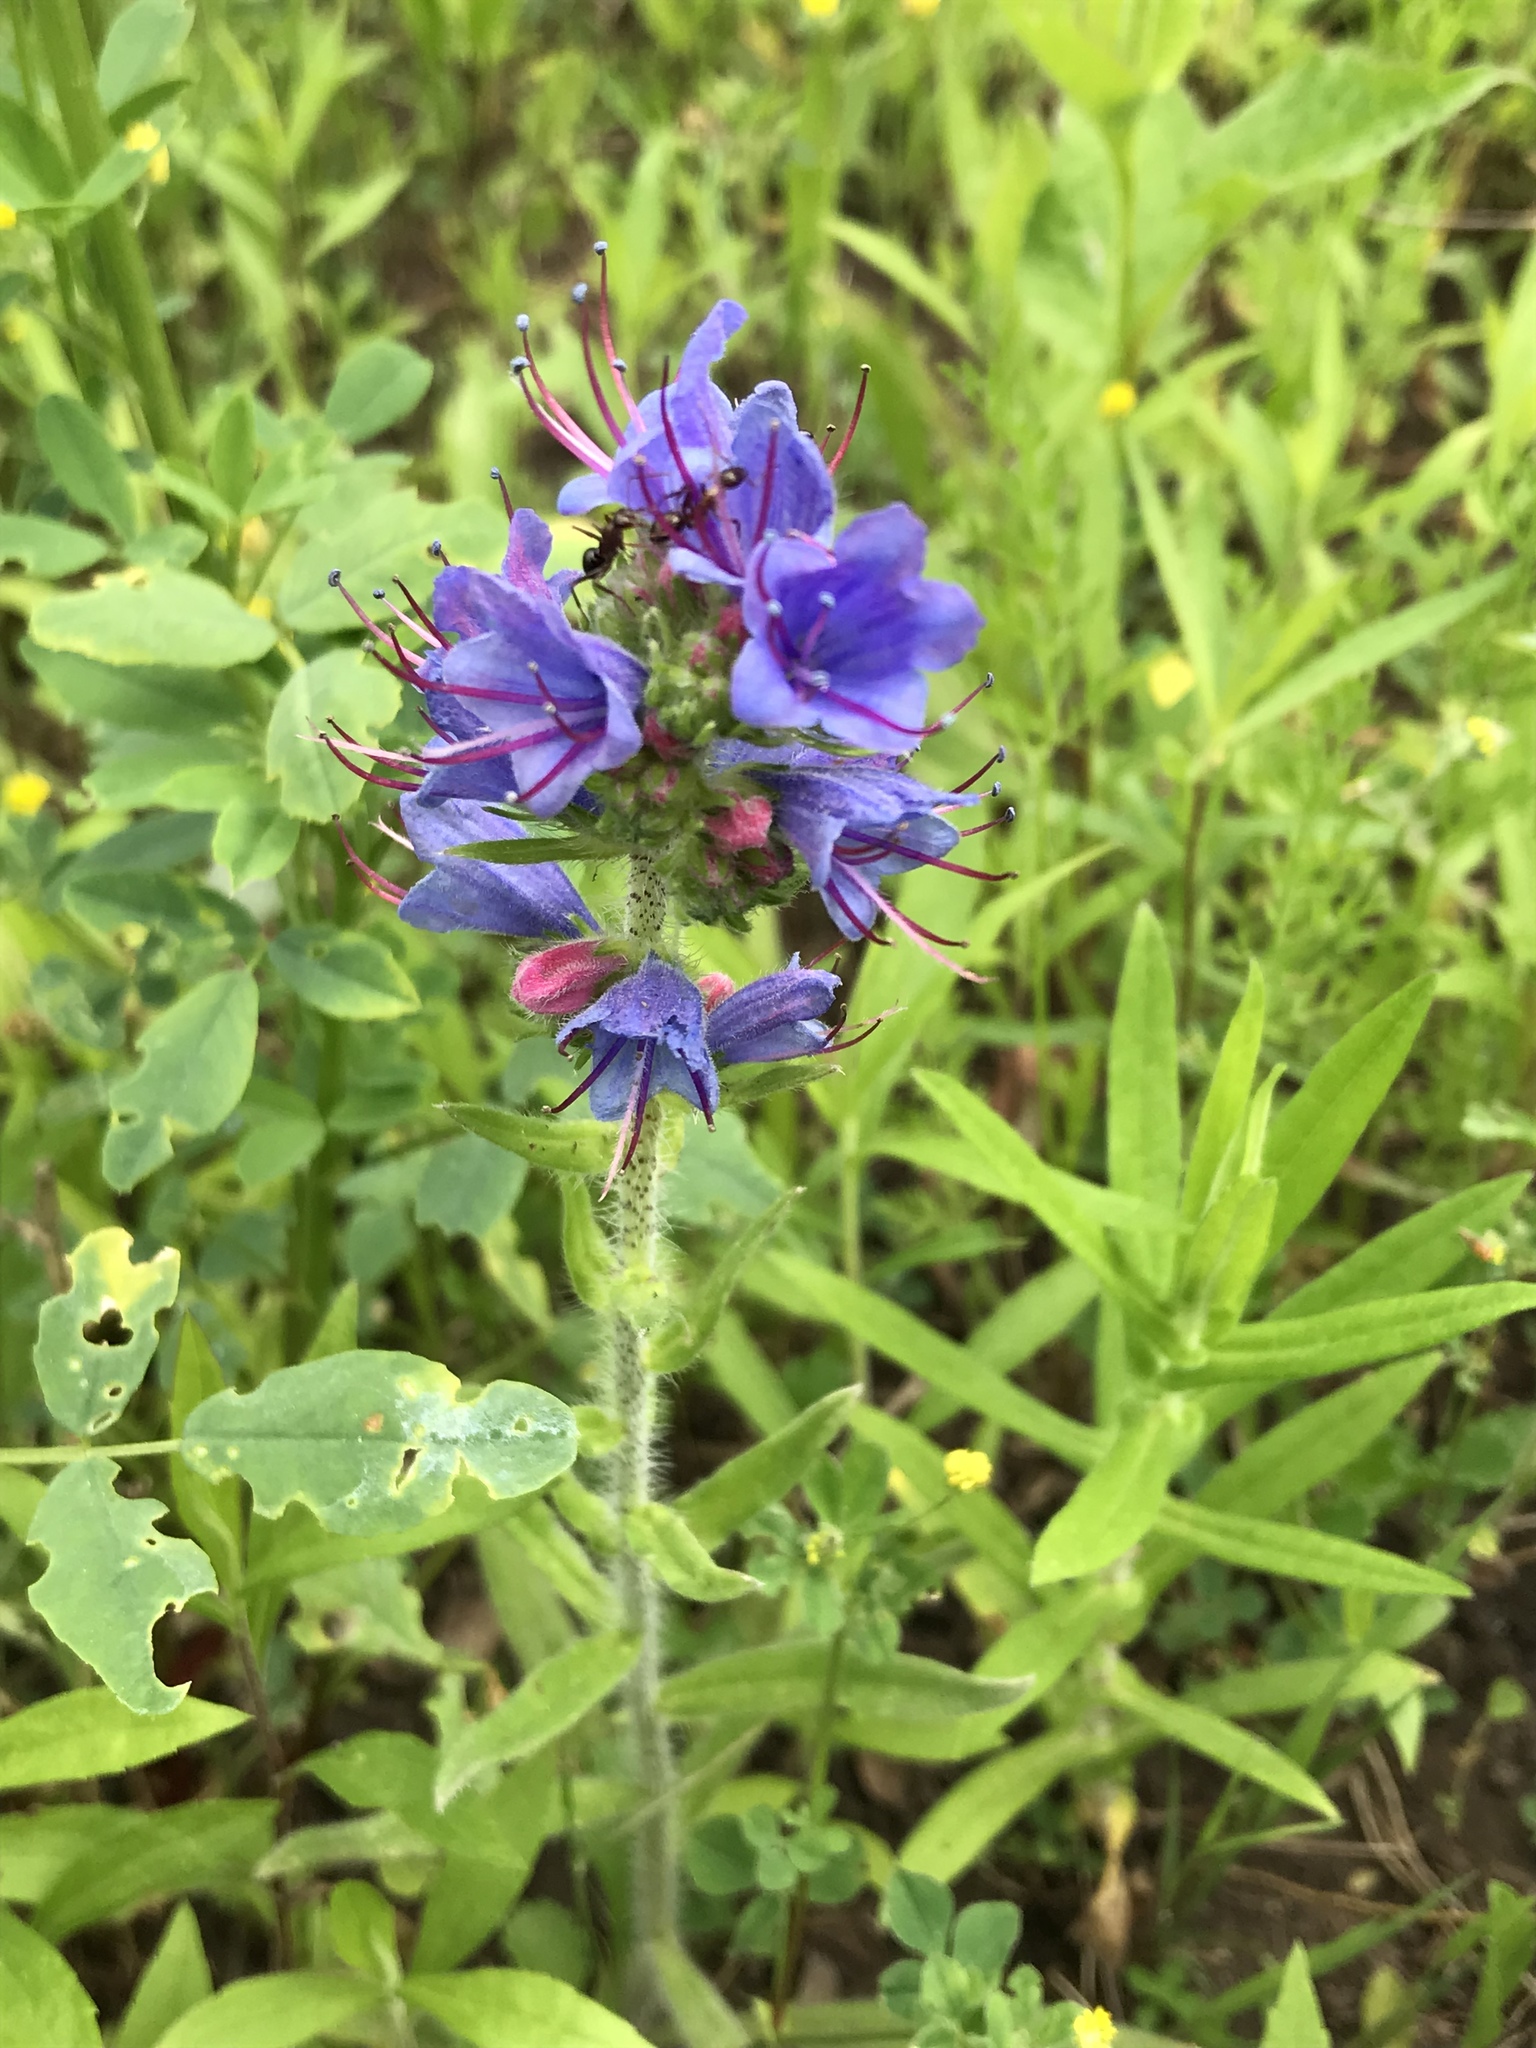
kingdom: Plantae
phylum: Tracheophyta
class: Magnoliopsida
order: Boraginales
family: Boraginaceae
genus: Echium
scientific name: Echium vulgare
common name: Common viper's bugloss
